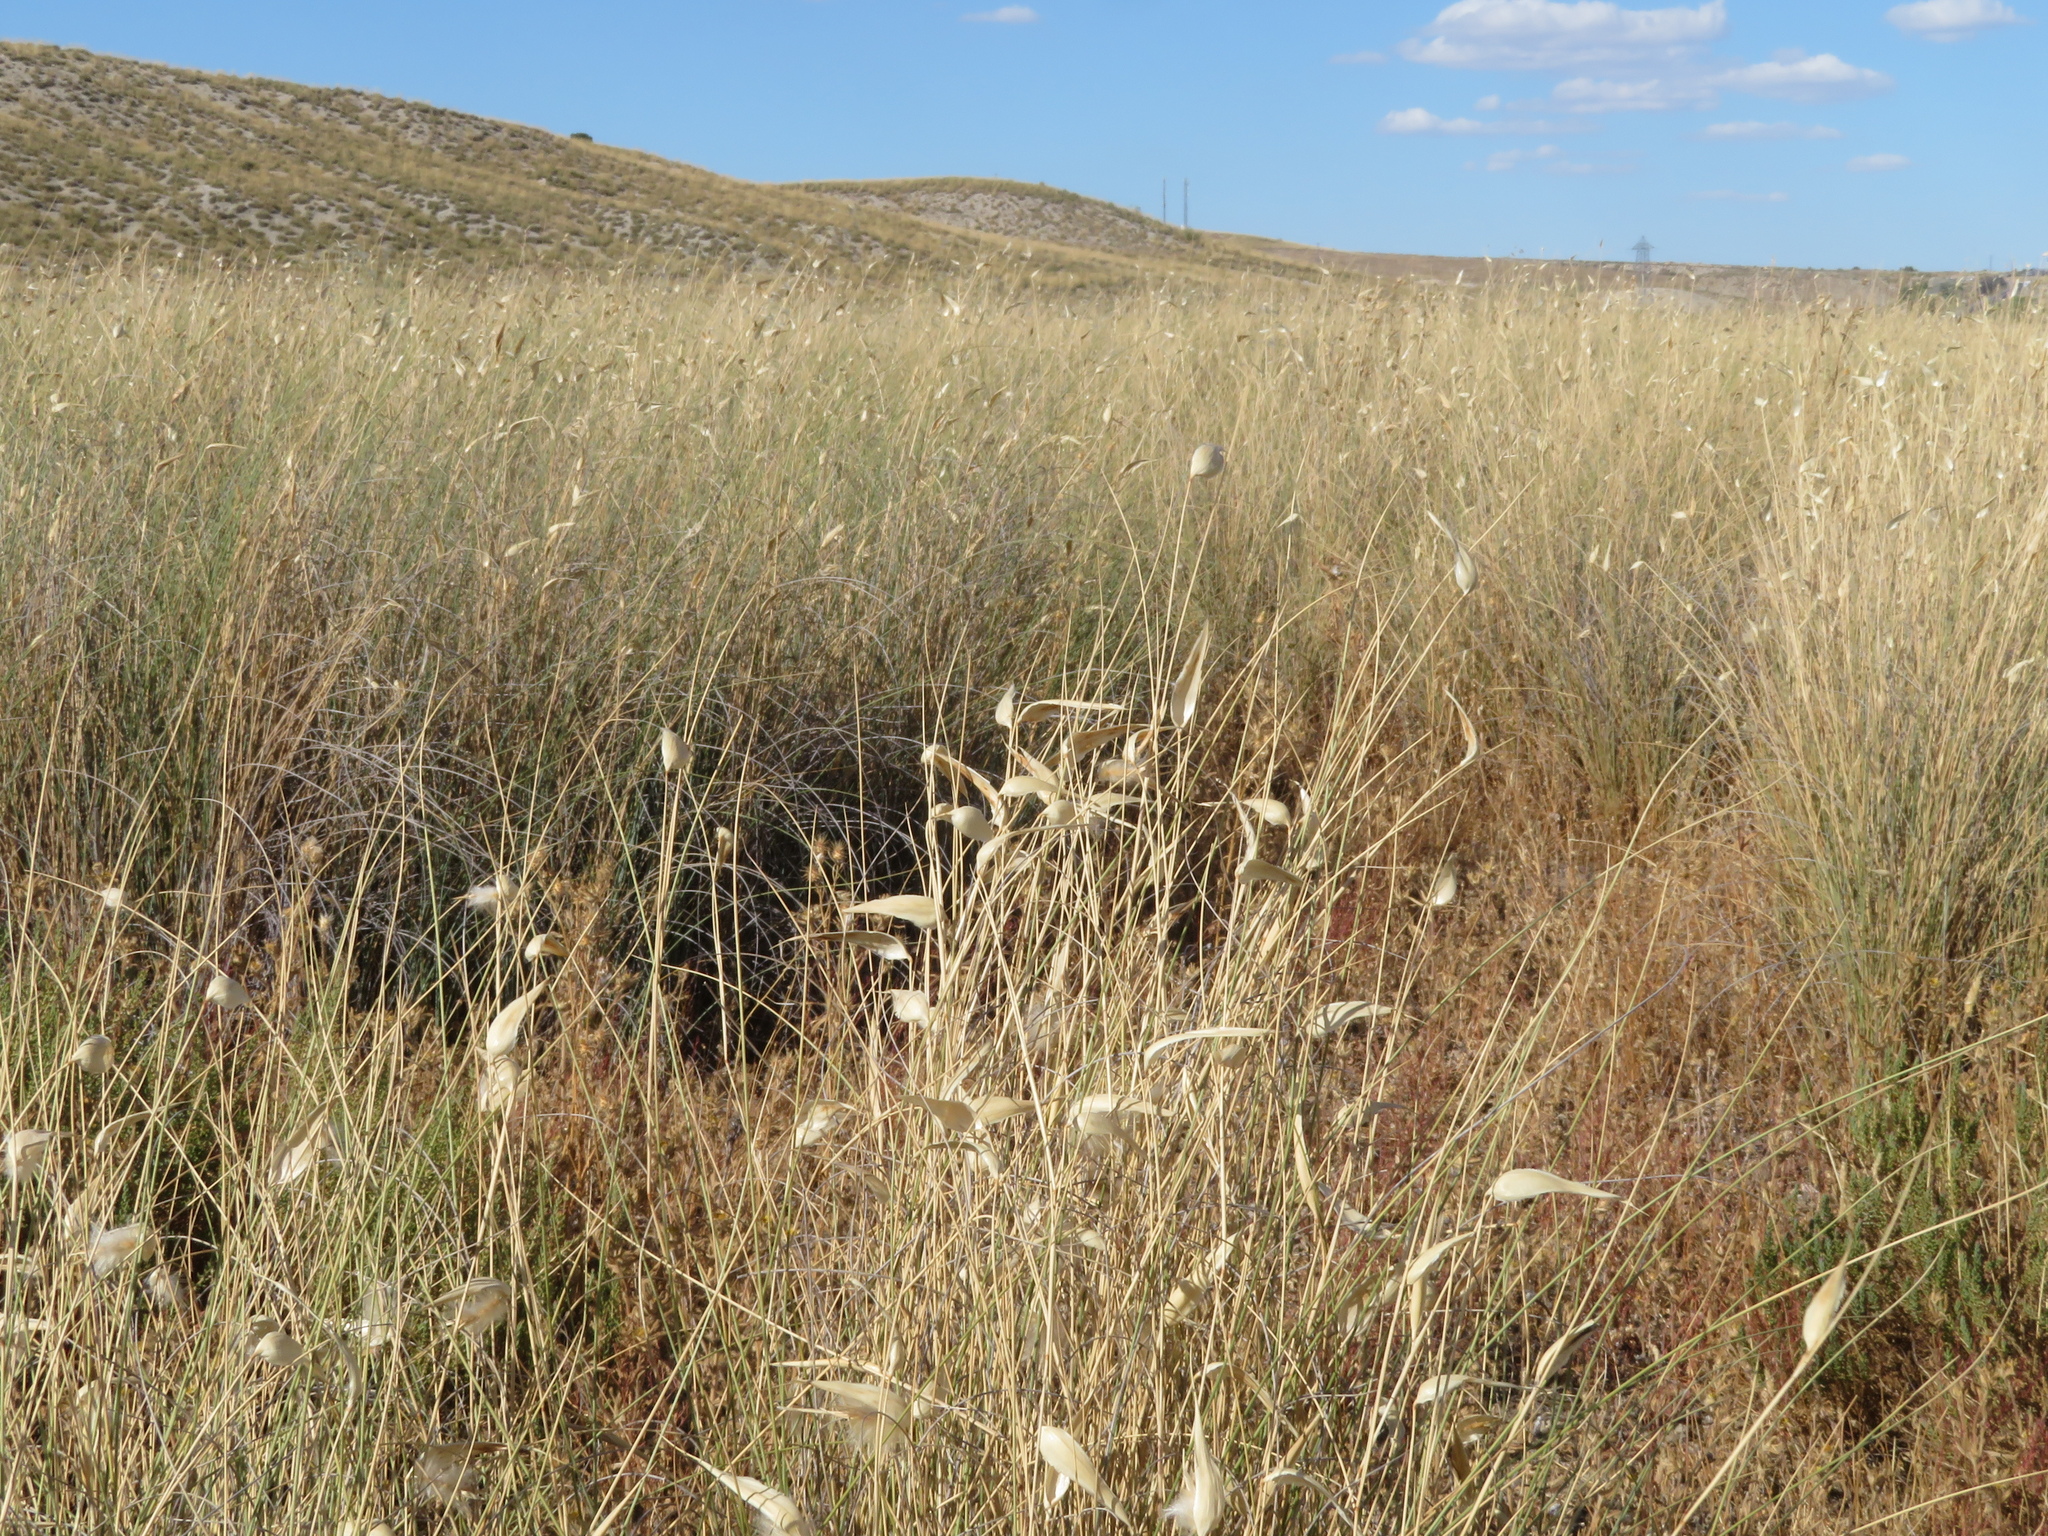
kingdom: Plantae
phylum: Tracheophyta
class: Liliopsida
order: Poales
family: Poaceae
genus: Lygeum
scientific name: Lygeum spartum
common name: Albardine
